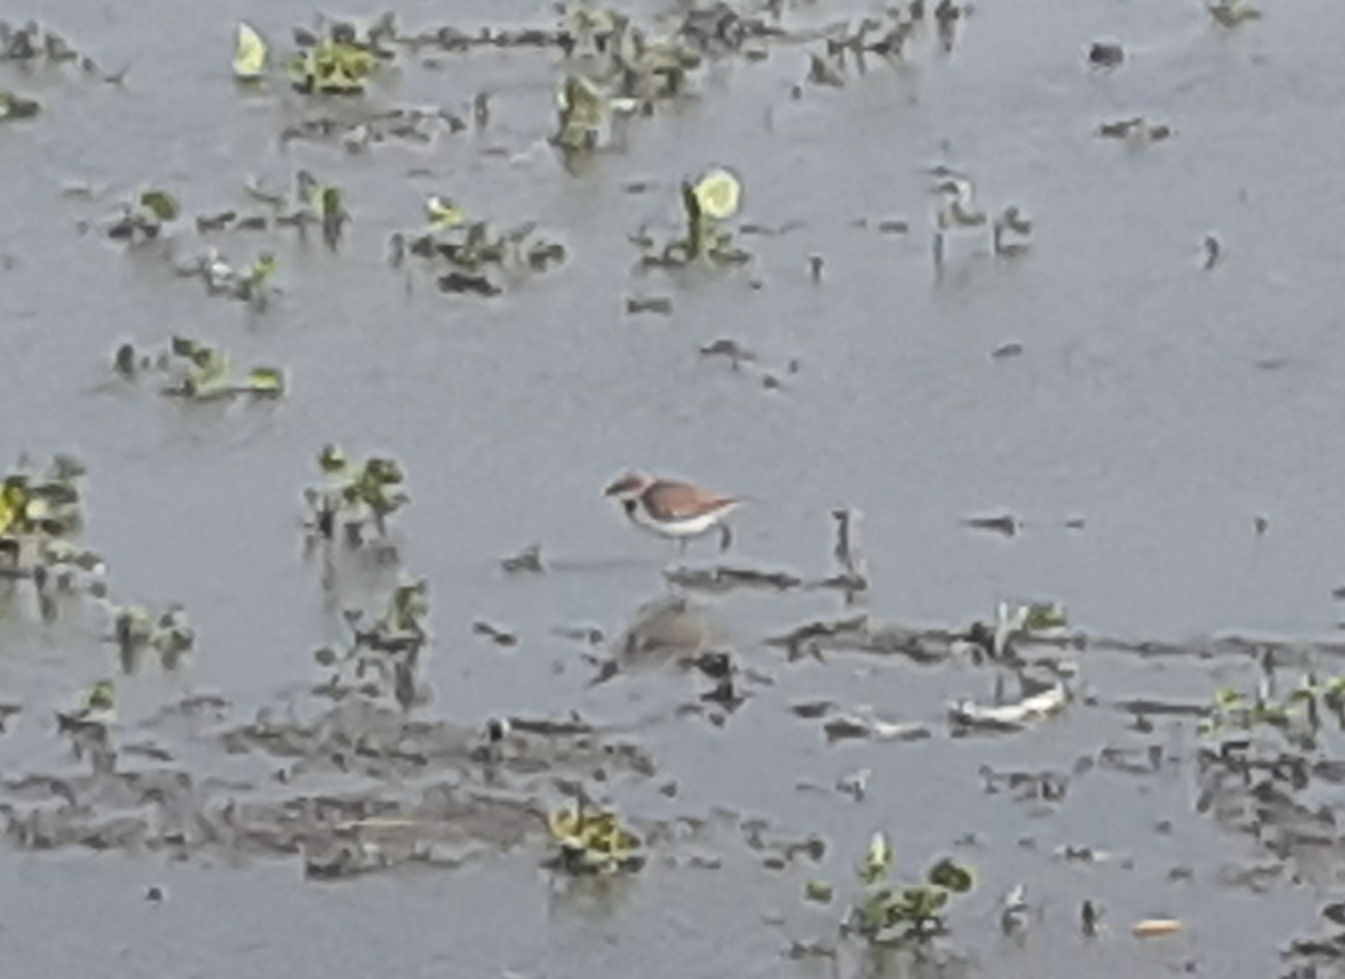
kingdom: Animalia
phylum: Chordata
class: Aves
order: Charadriiformes
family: Charadriidae
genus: Charadrius
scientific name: Charadrius dubius
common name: Little ringed plover
